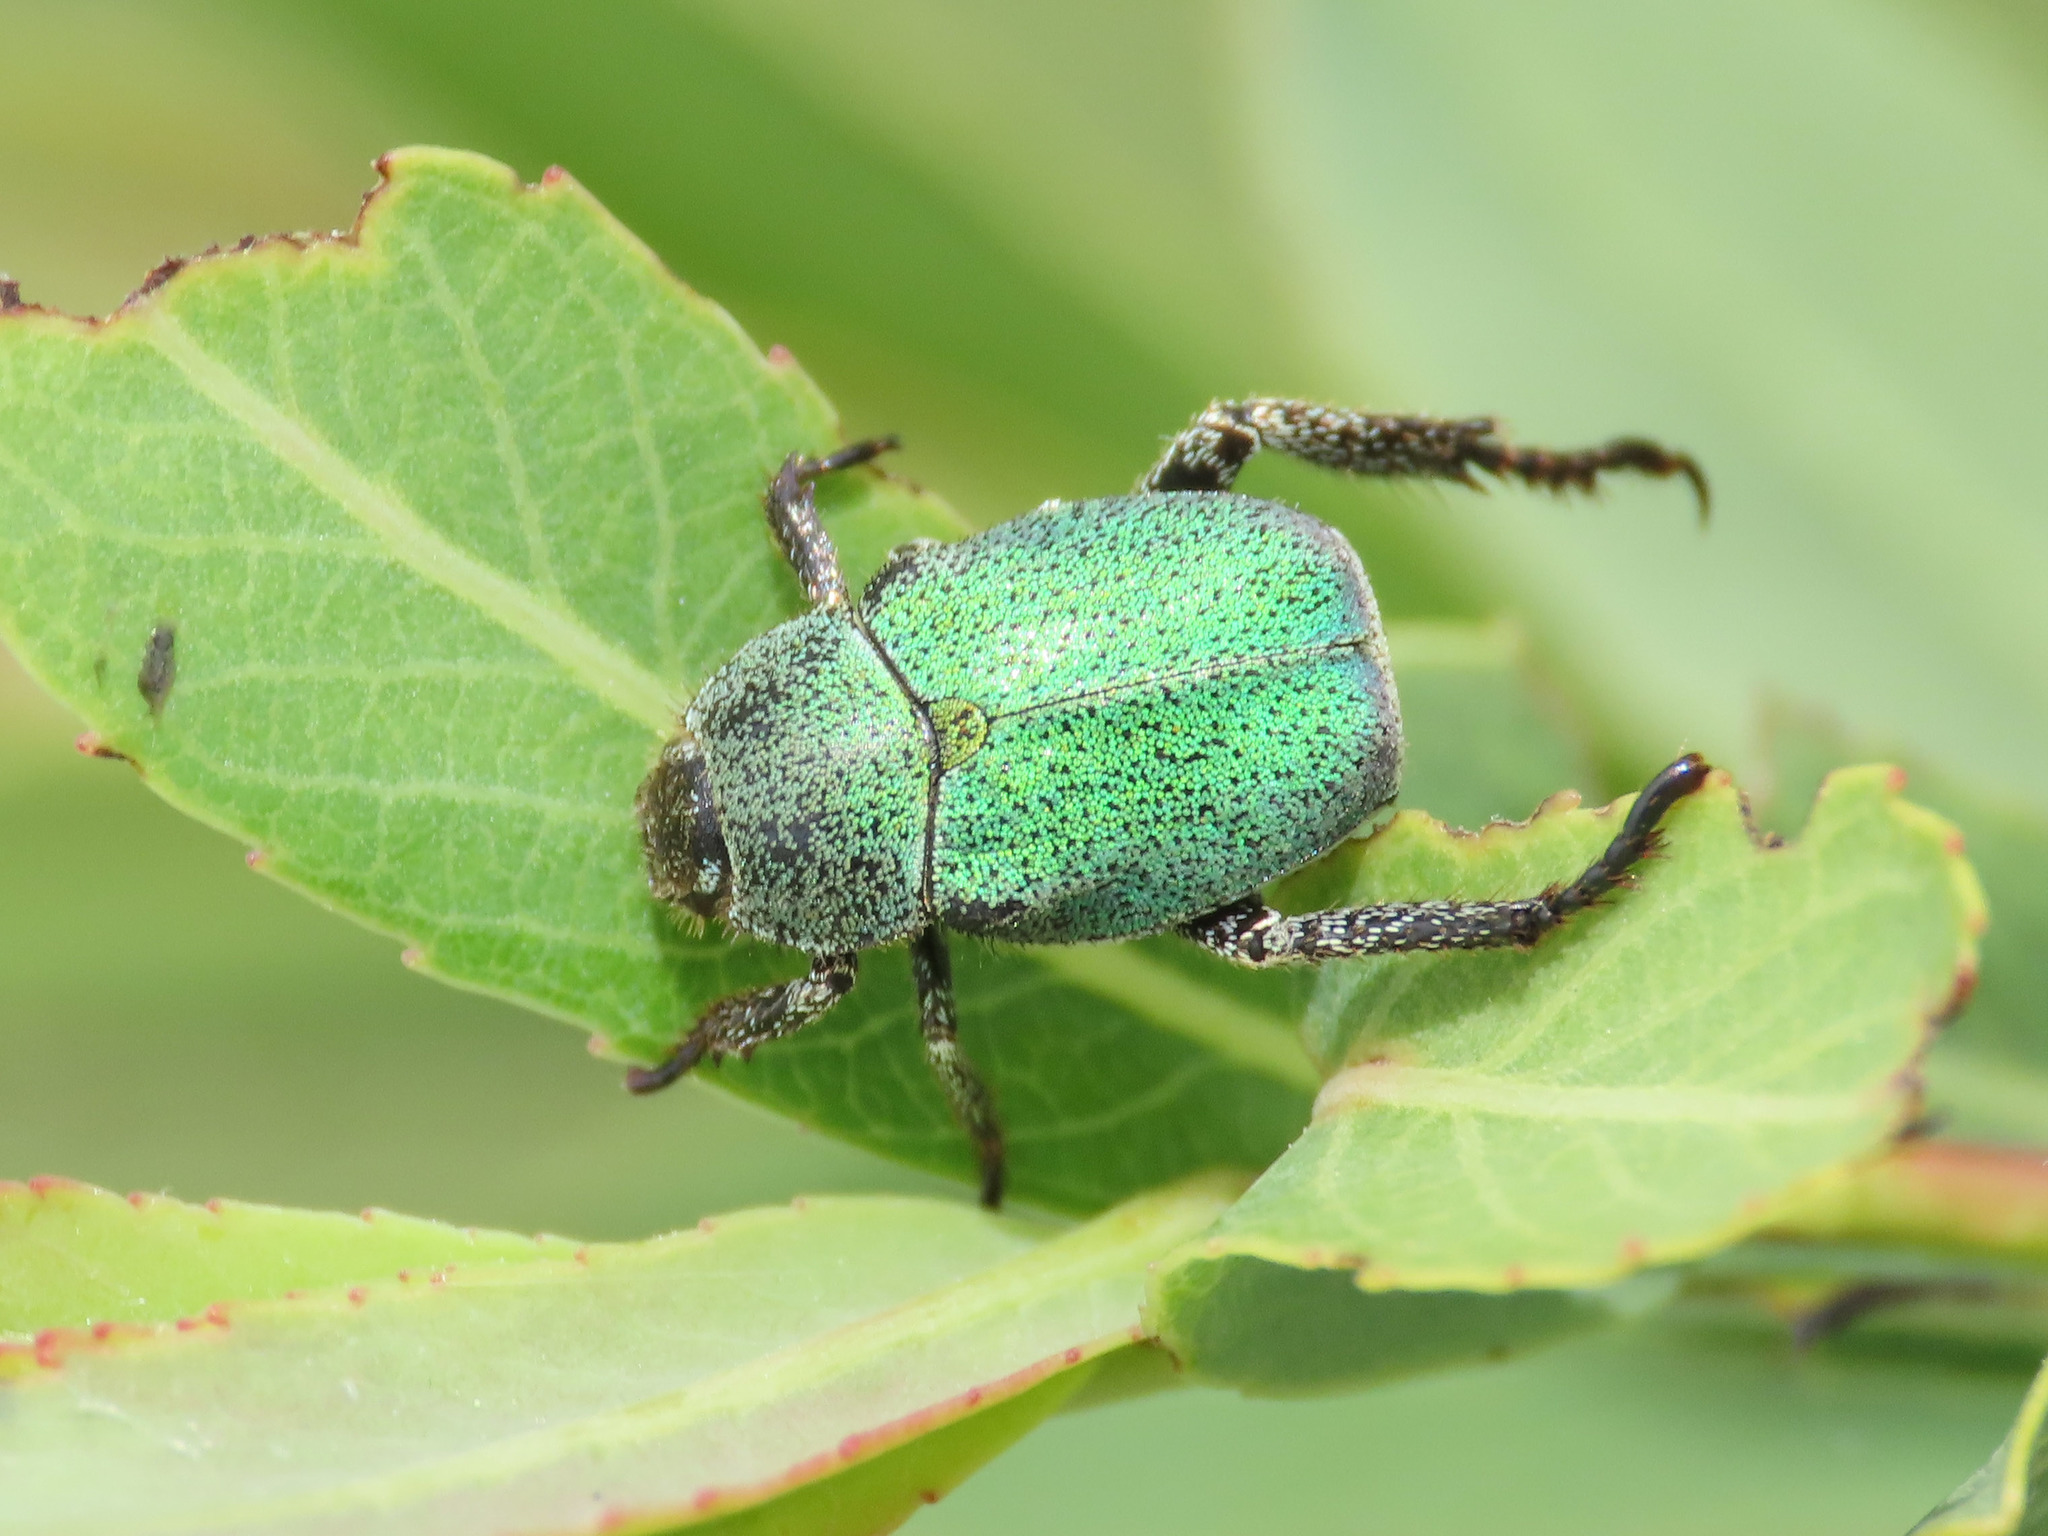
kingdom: Animalia
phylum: Arthropoda
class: Insecta
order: Coleoptera
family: Scarabaeidae
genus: Hoplia
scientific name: Hoplia minuta
